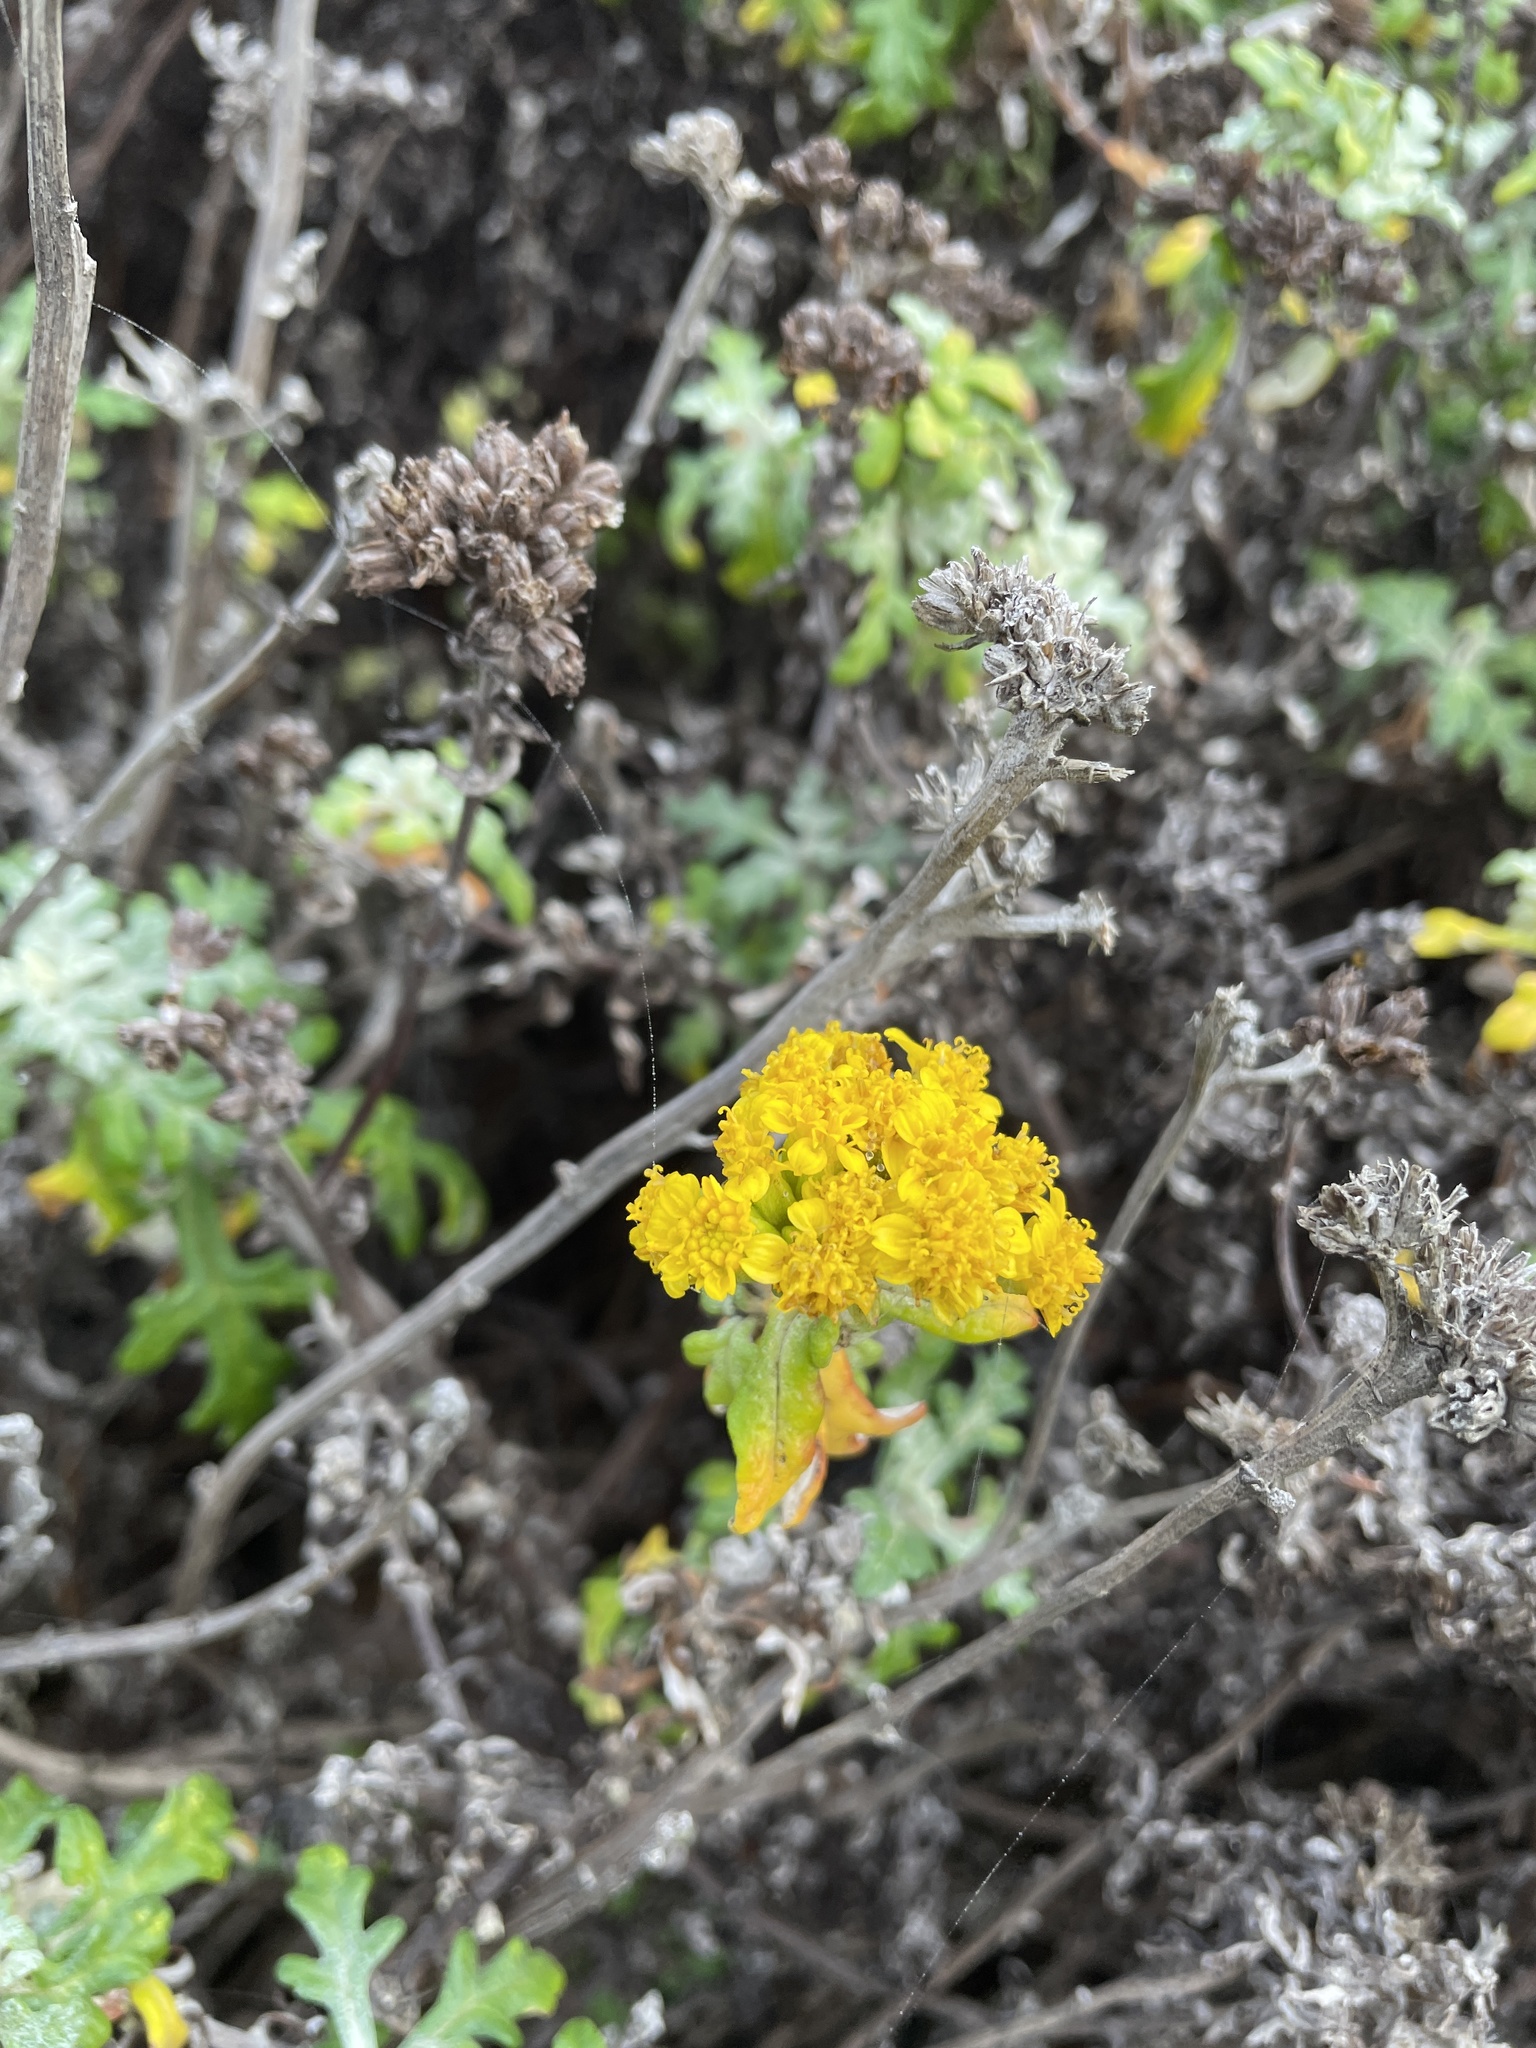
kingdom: Plantae
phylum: Tracheophyta
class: Magnoliopsida
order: Asterales
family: Asteraceae
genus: Eriophyllum
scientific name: Eriophyllum staechadifolium
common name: Lizardtail
